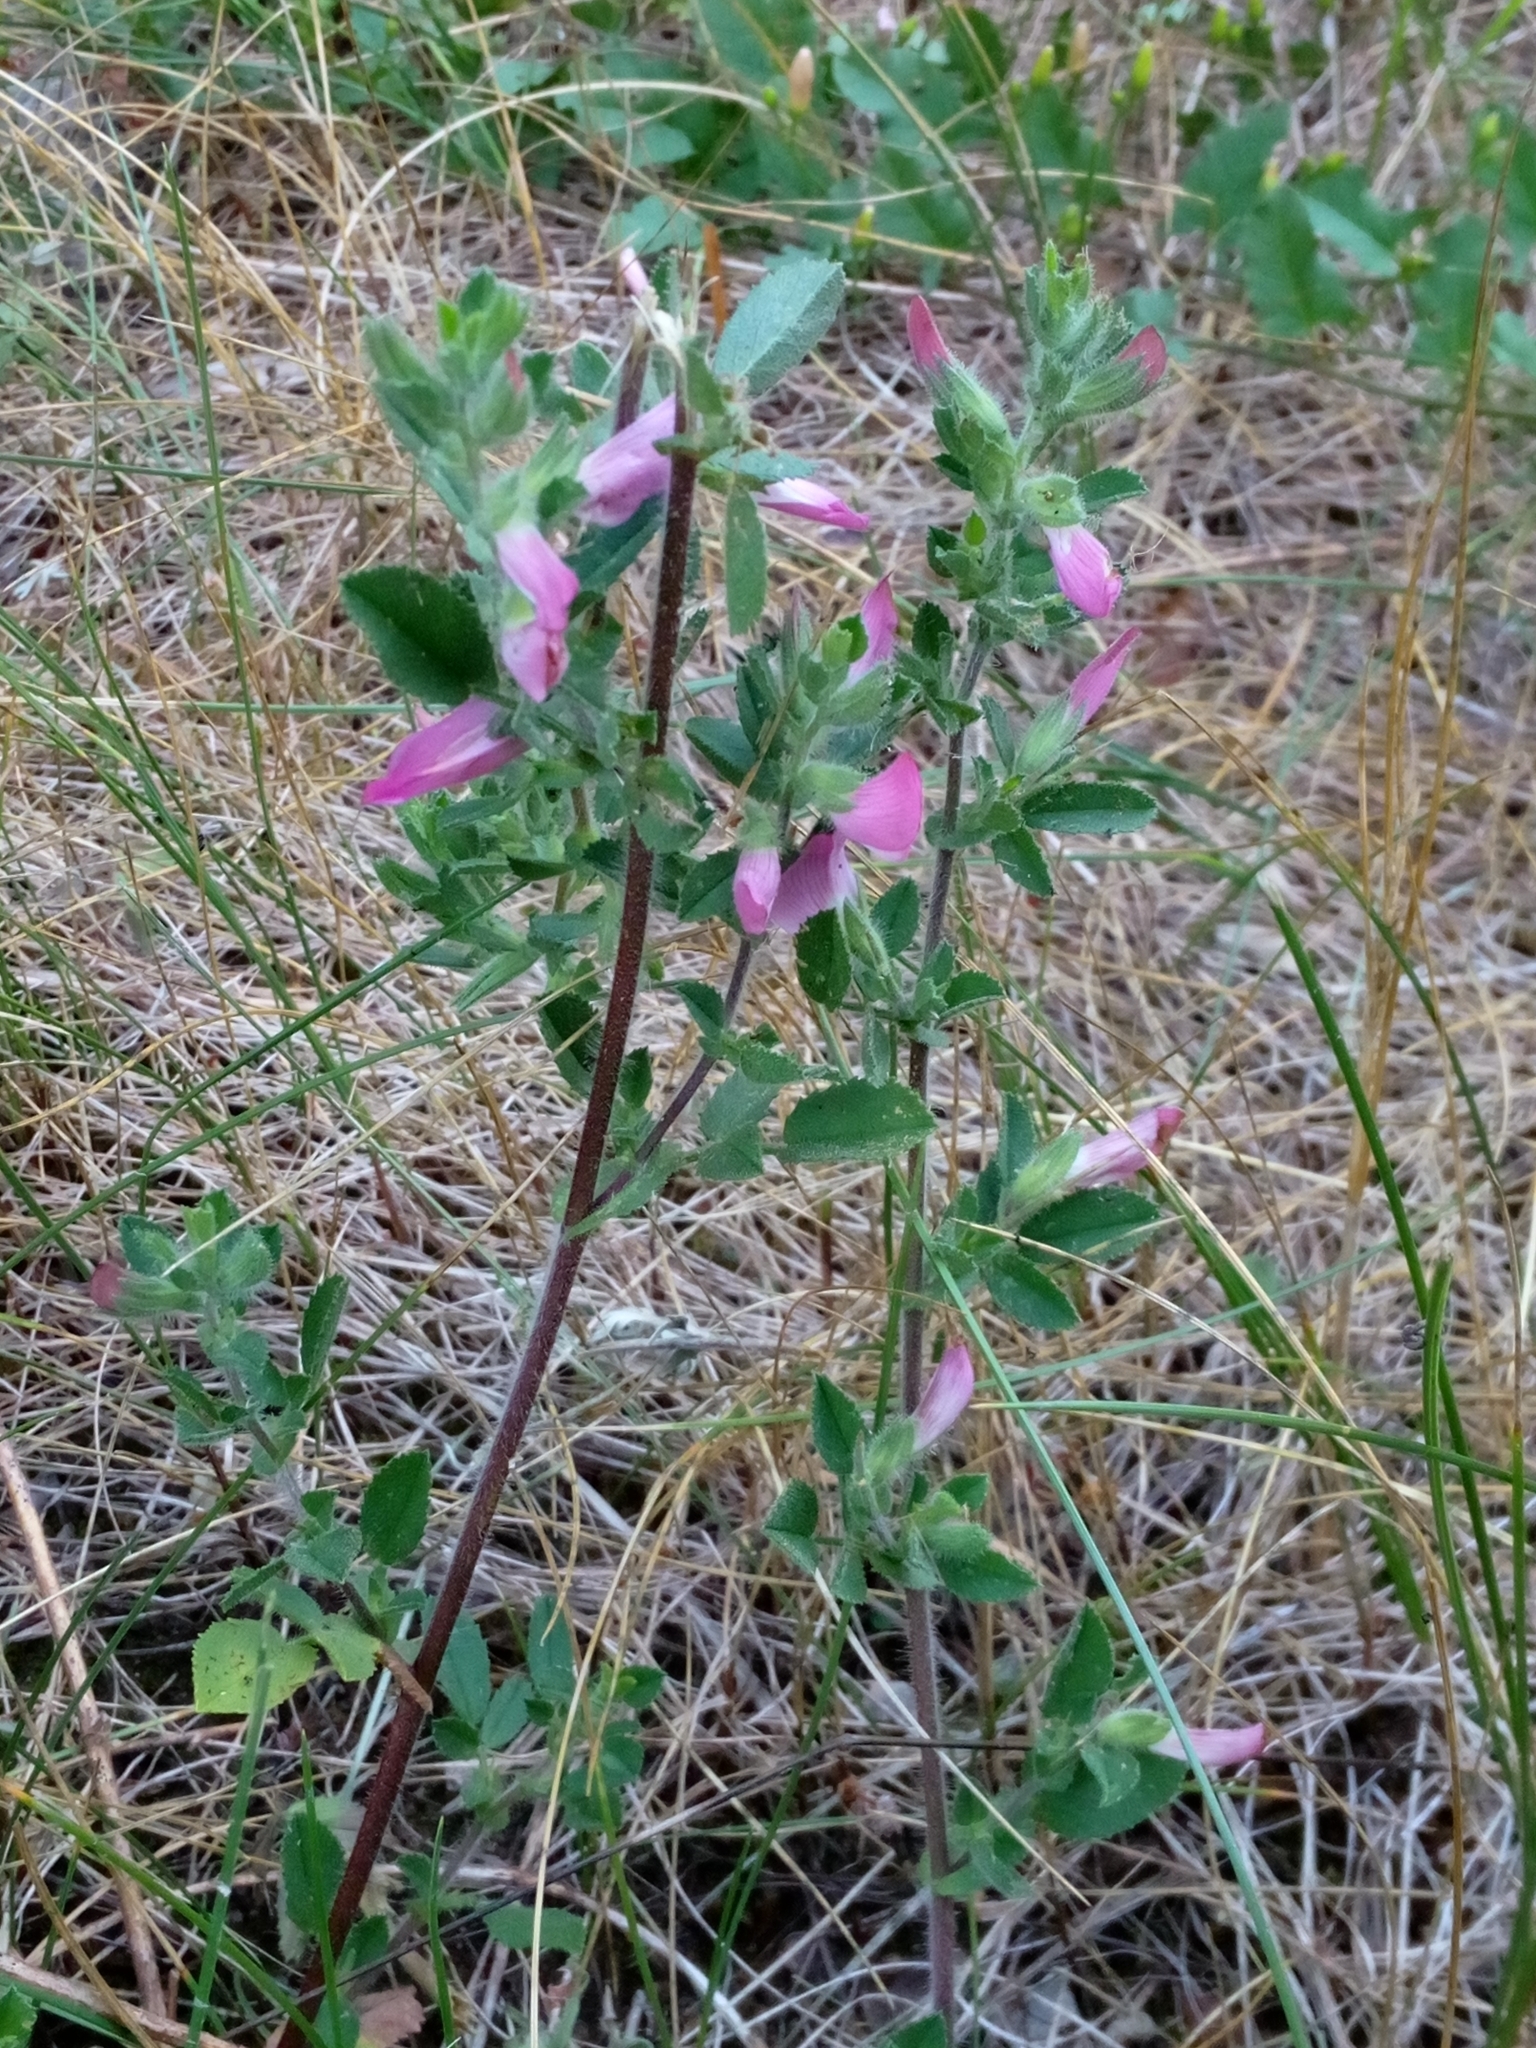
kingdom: Plantae
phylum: Tracheophyta
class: Magnoliopsida
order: Fabales
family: Fabaceae
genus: Ononis
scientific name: Ononis arvensis
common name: Field restharrow
